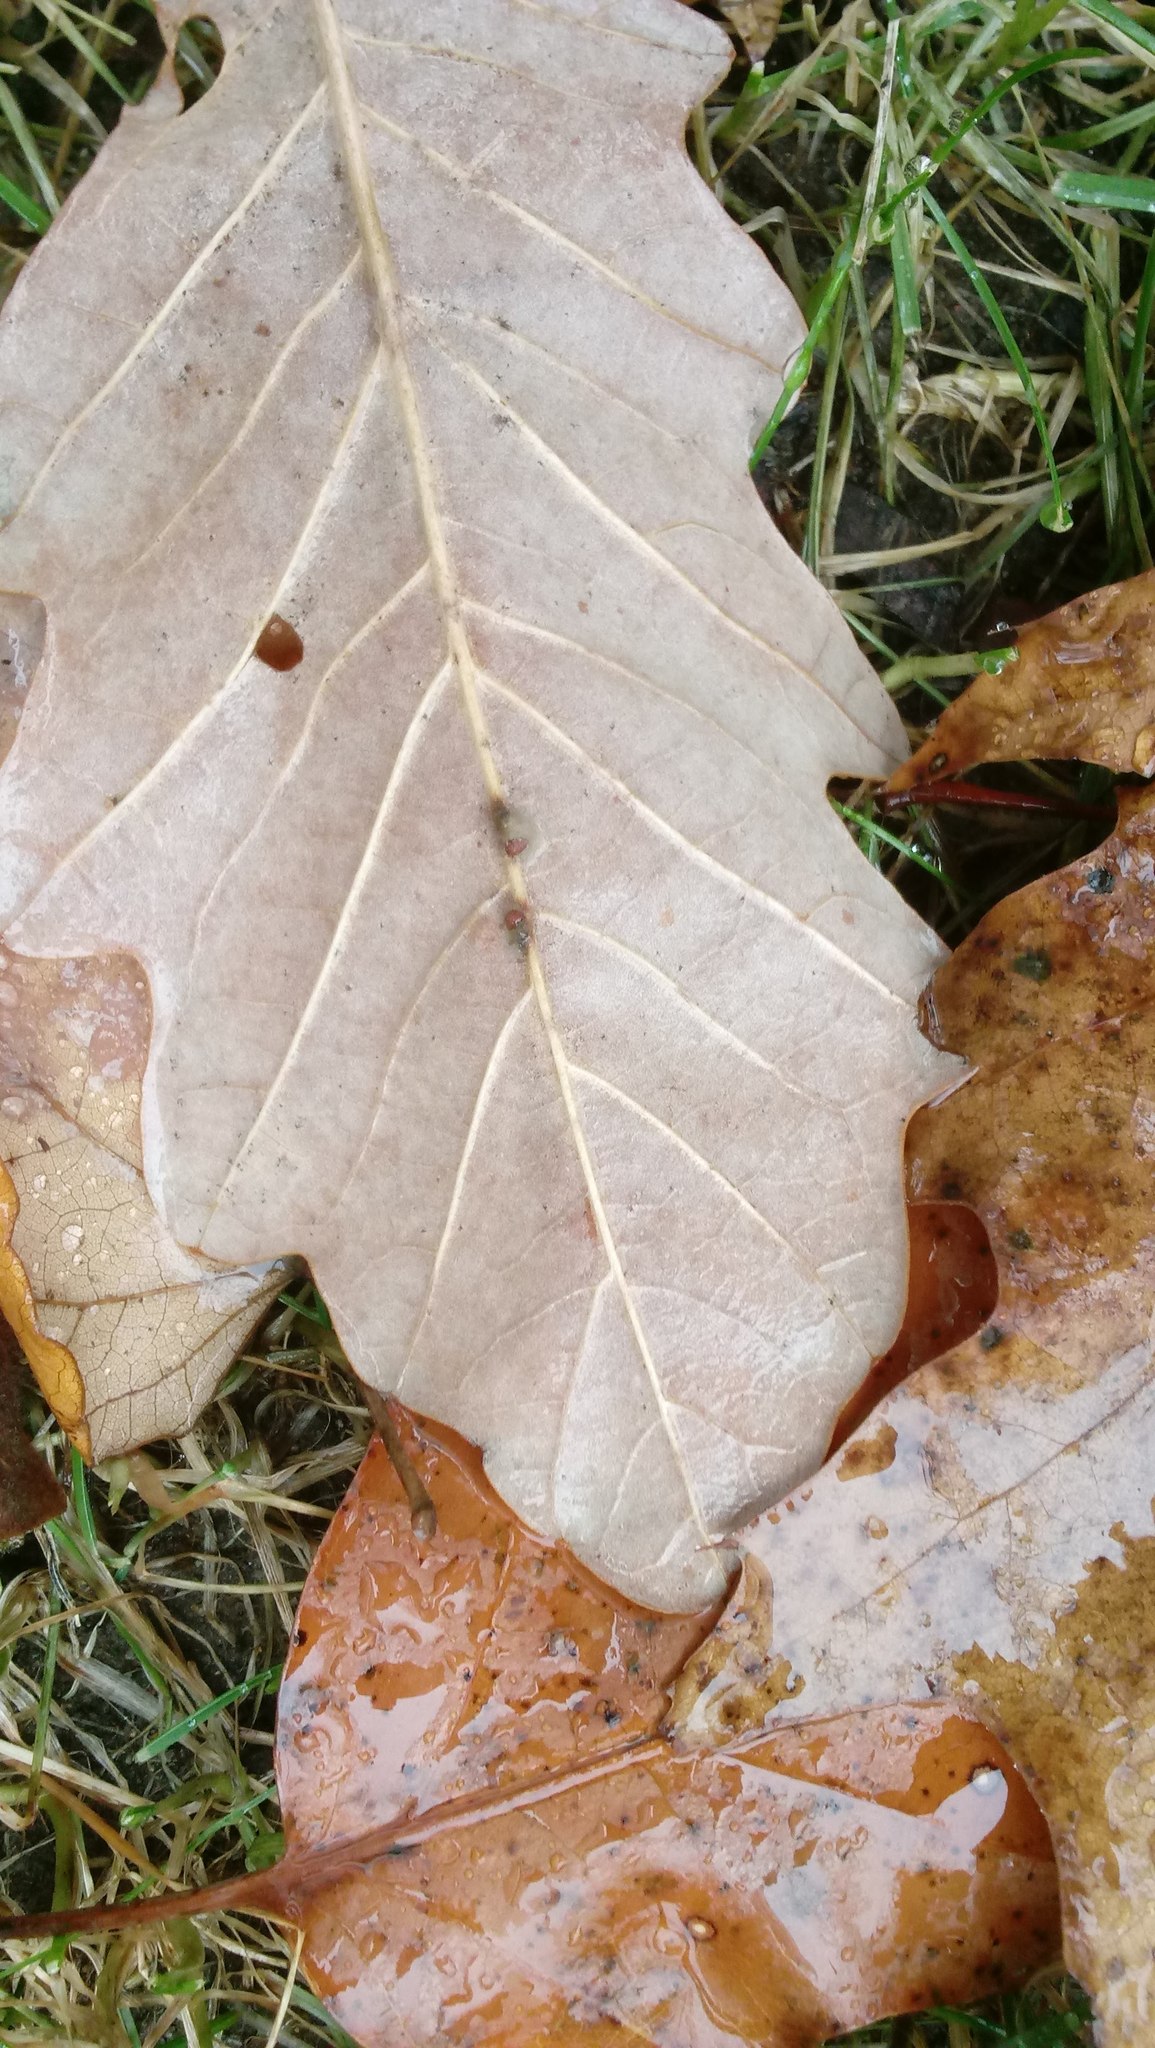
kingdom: Animalia
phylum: Arthropoda
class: Insecta
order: Hymenoptera
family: Cynipidae
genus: Andricus
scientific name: Andricus Druon ignotum
